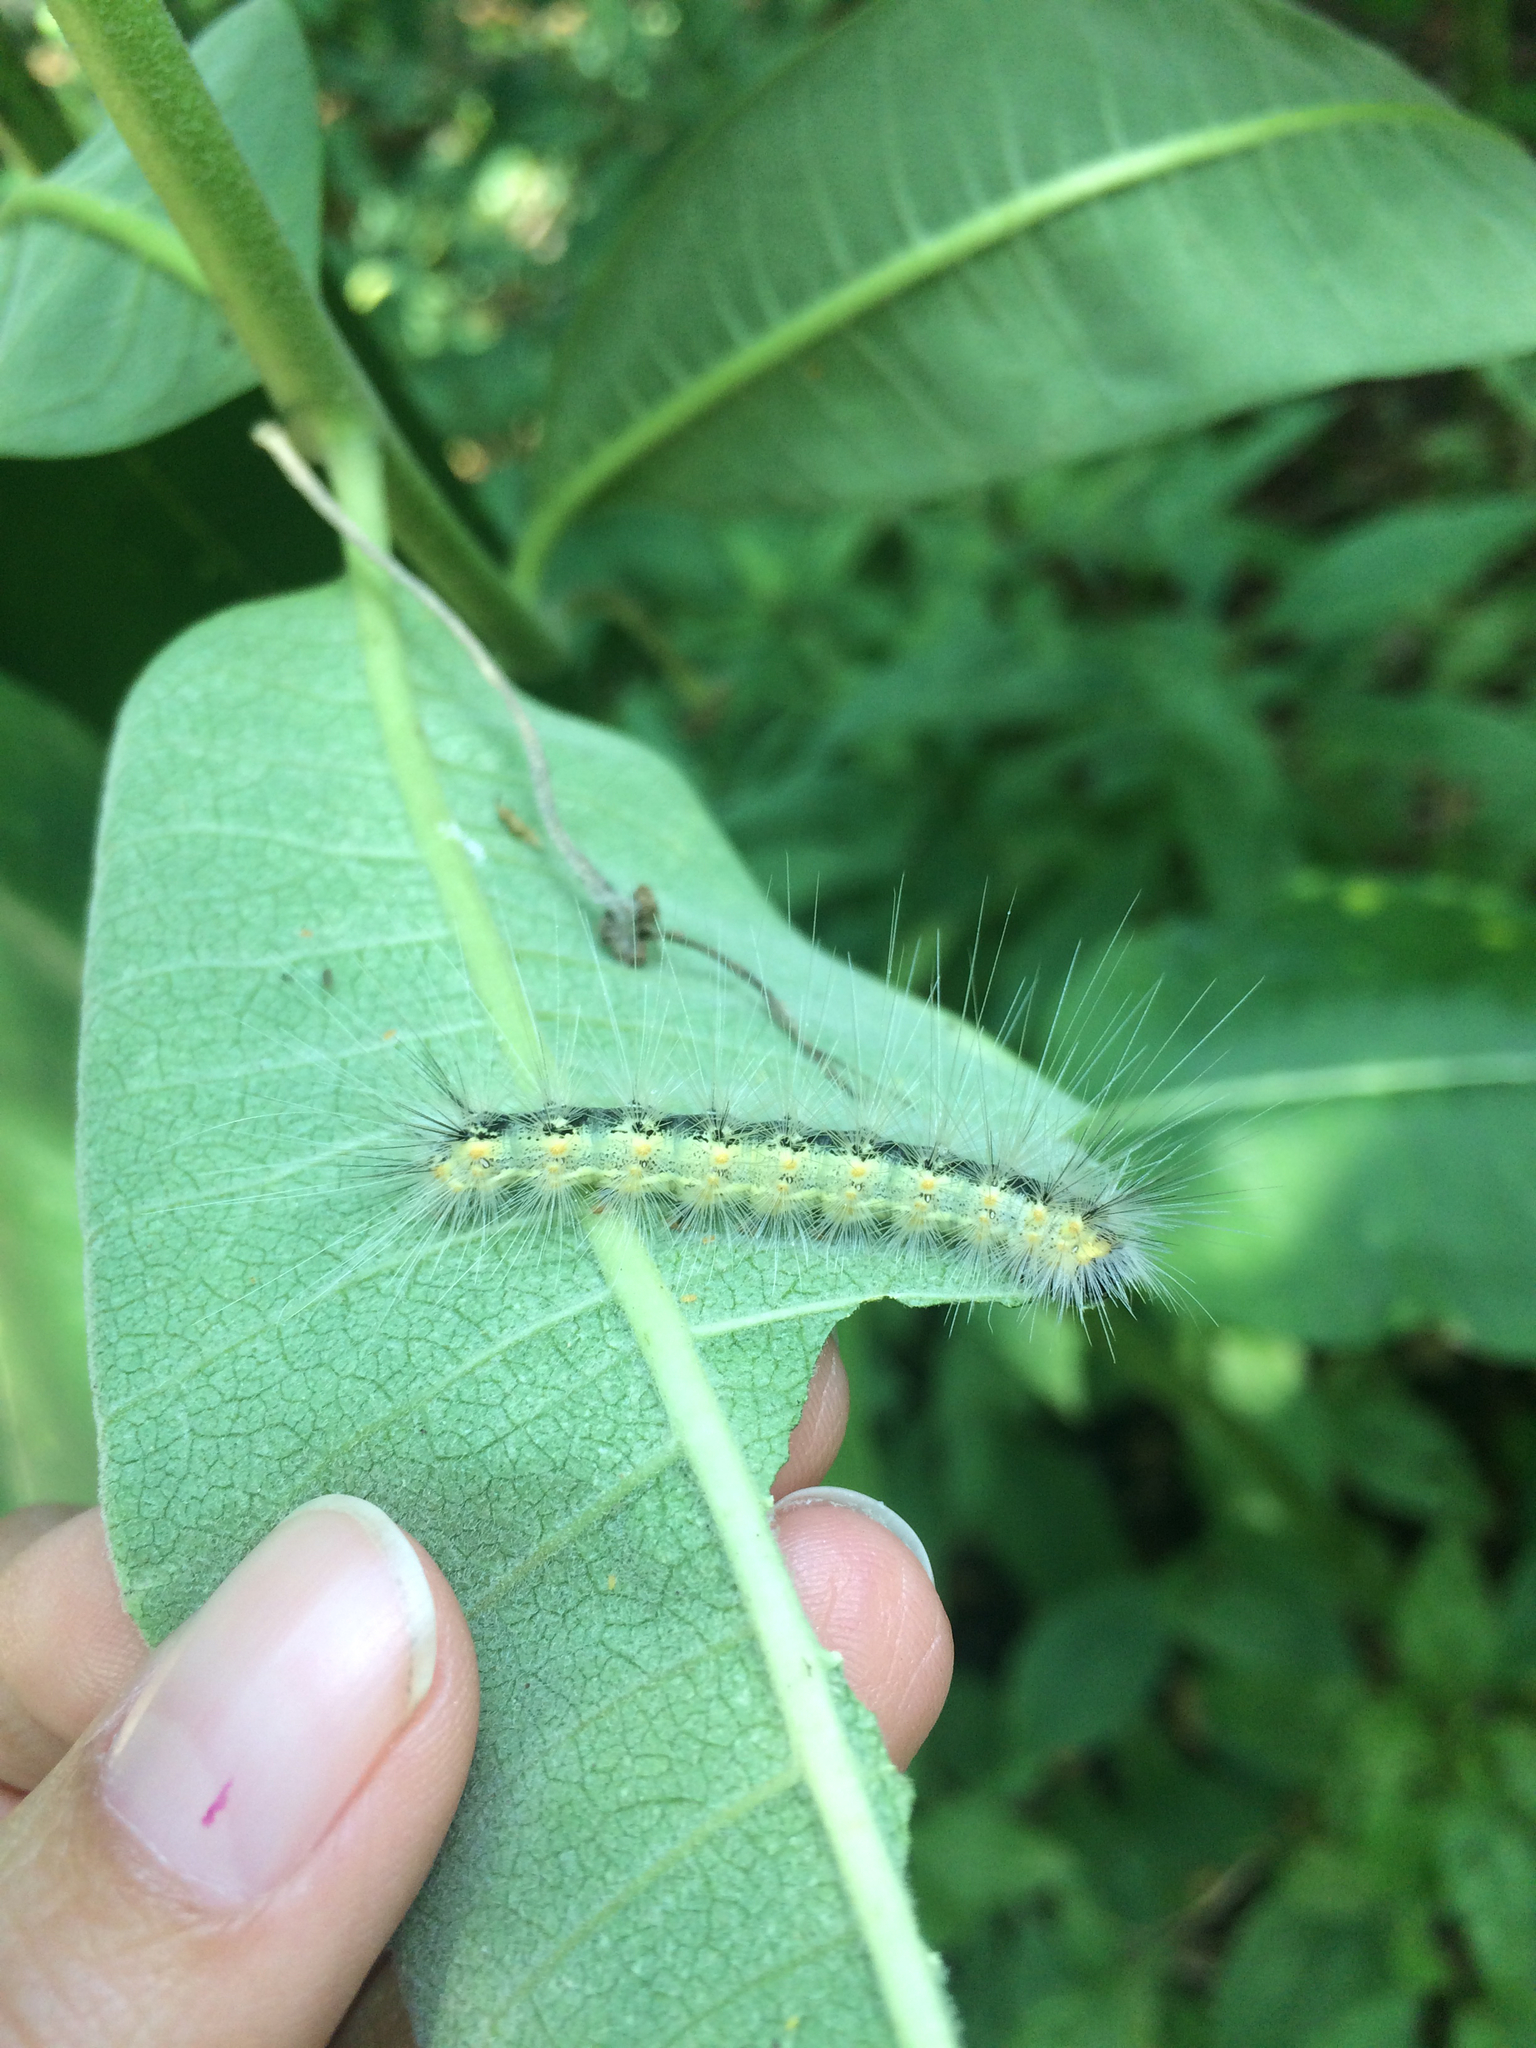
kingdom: Animalia
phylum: Arthropoda
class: Insecta
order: Lepidoptera
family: Erebidae
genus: Hyphantria
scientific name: Hyphantria cunea
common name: American white moth
